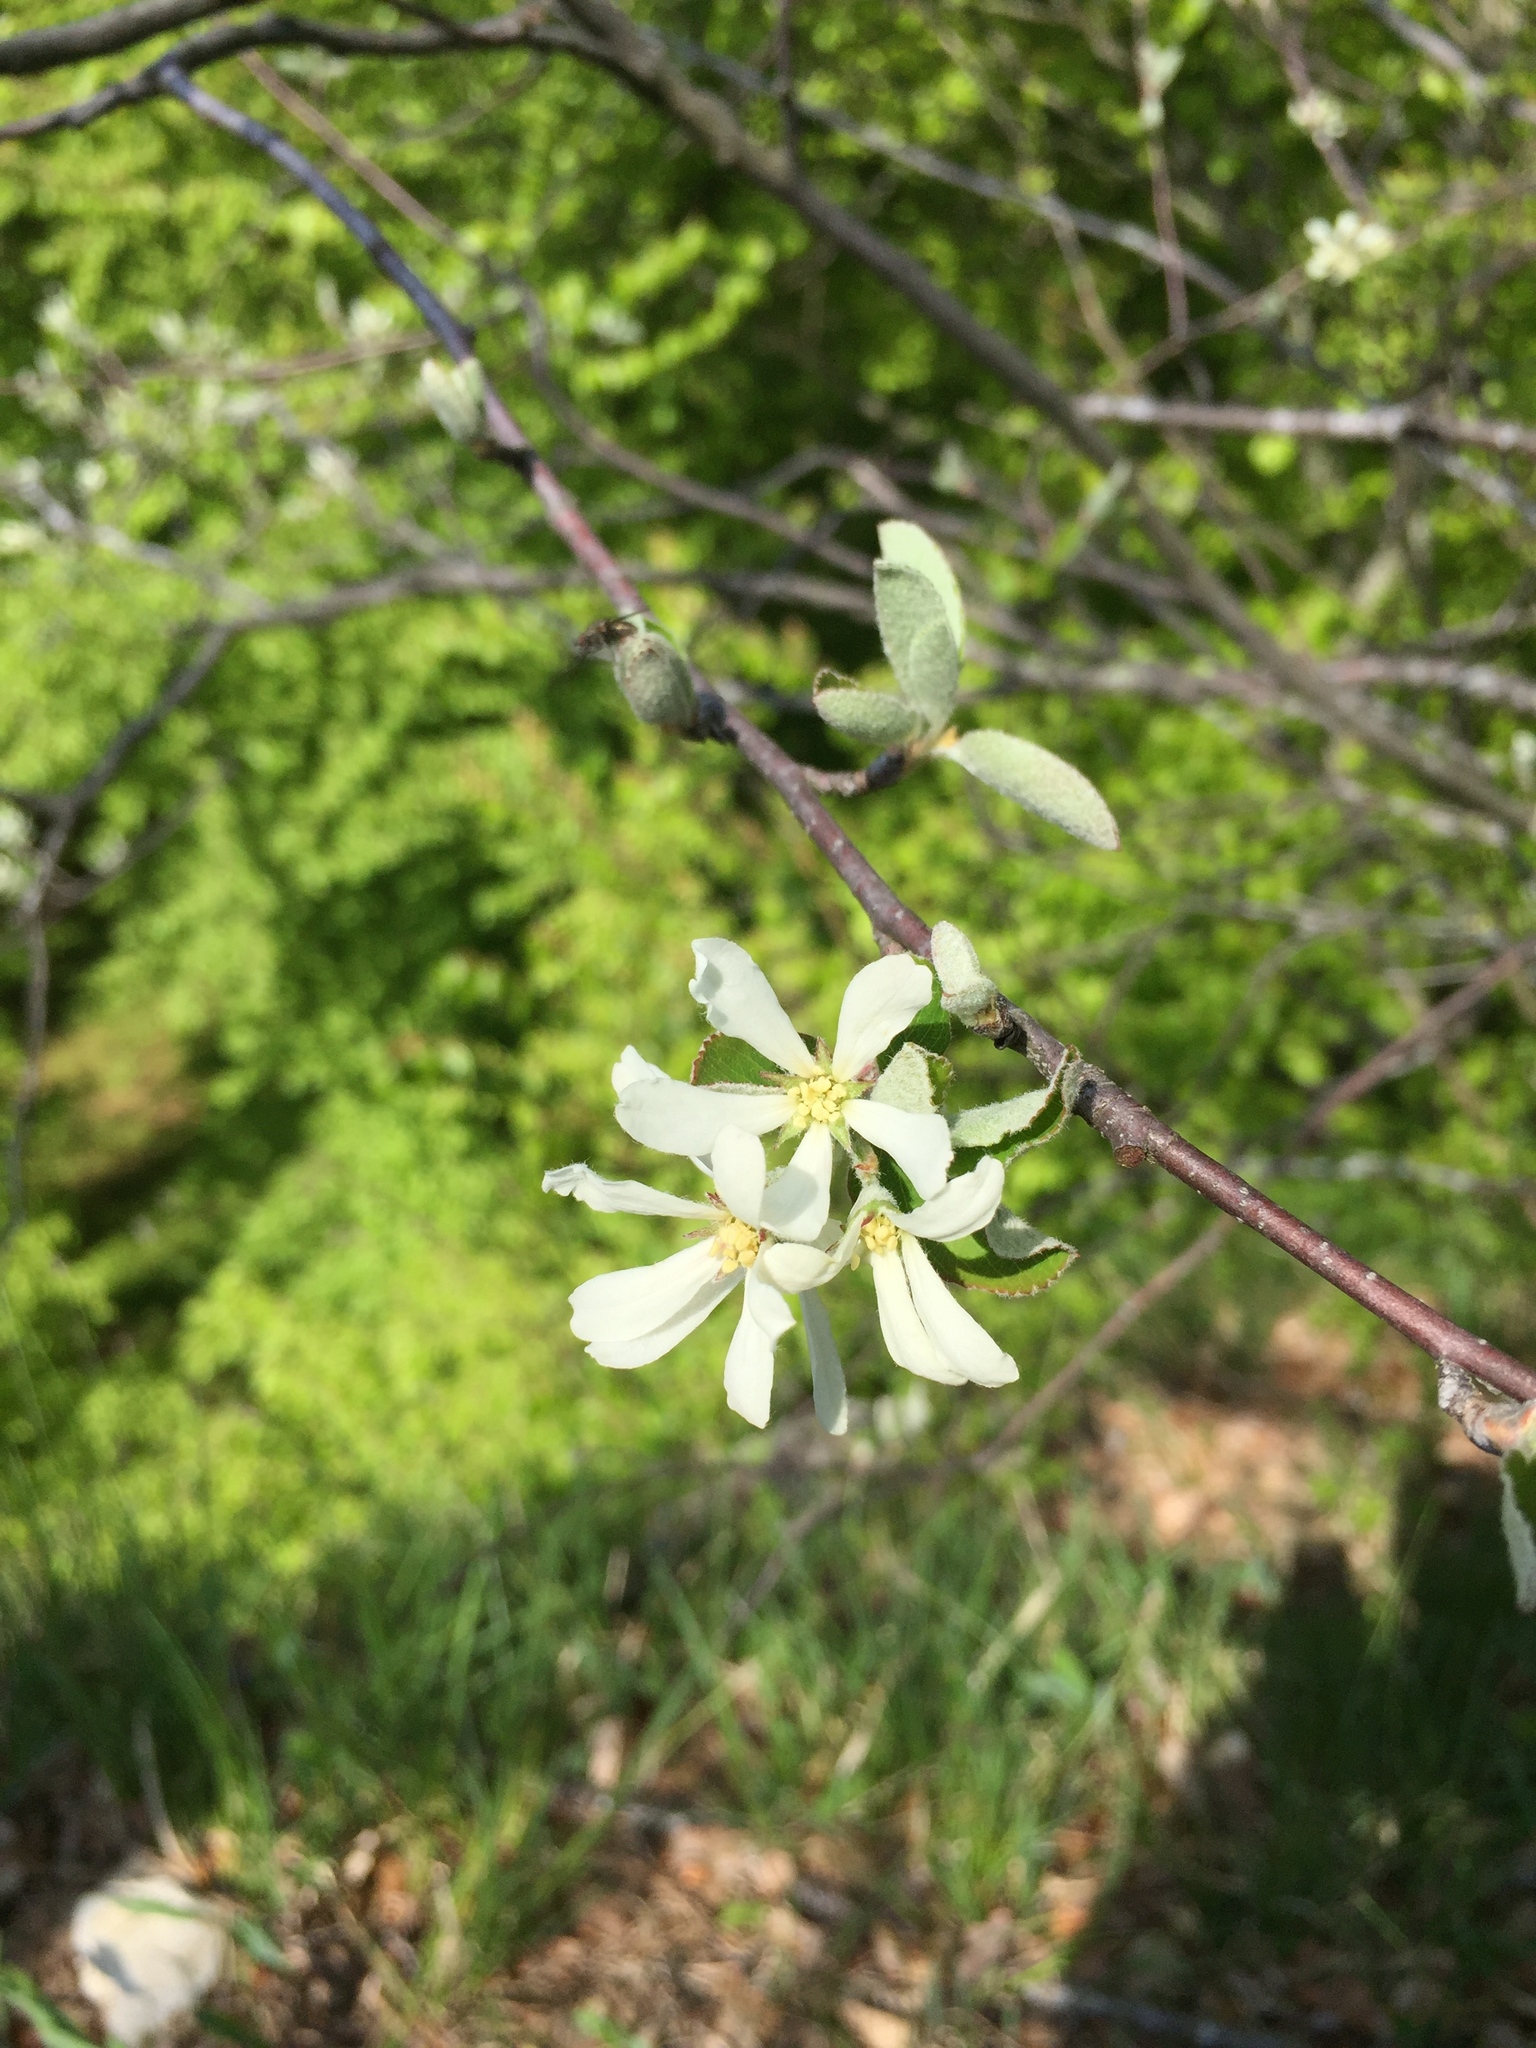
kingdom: Plantae
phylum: Tracheophyta
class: Magnoliopsida
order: Rosales
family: Rosaceae
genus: Amelanchier
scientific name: Amelanchier ovalis
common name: Serviceberry
